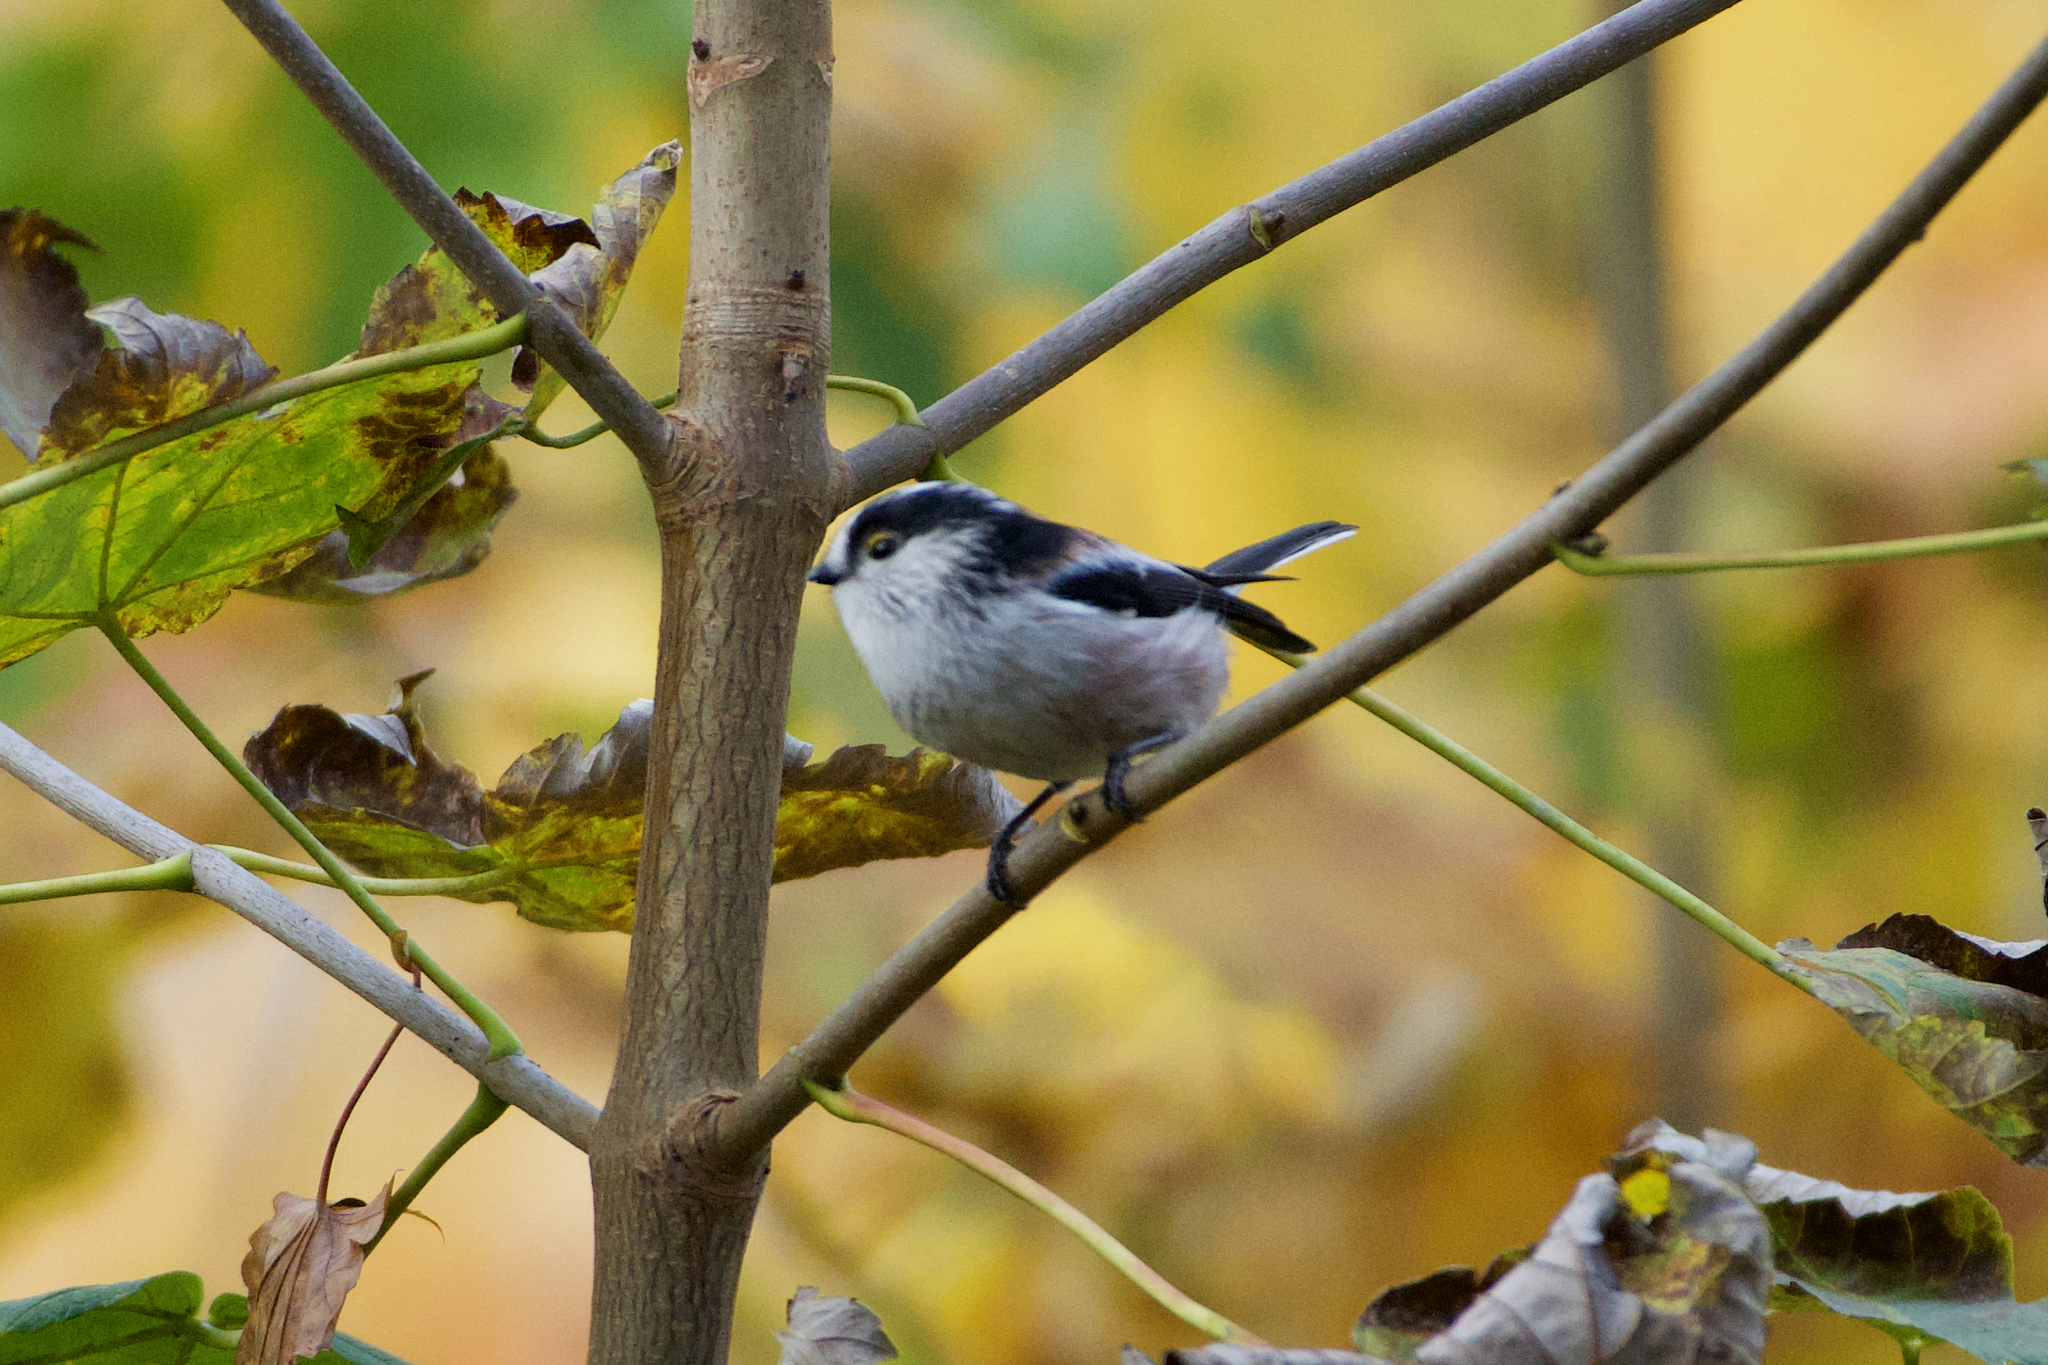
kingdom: Animalia
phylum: Chordata
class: Aves
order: Passeriformes
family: Aegithalidae
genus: Aegithalos
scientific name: Aegithalos caudatus
